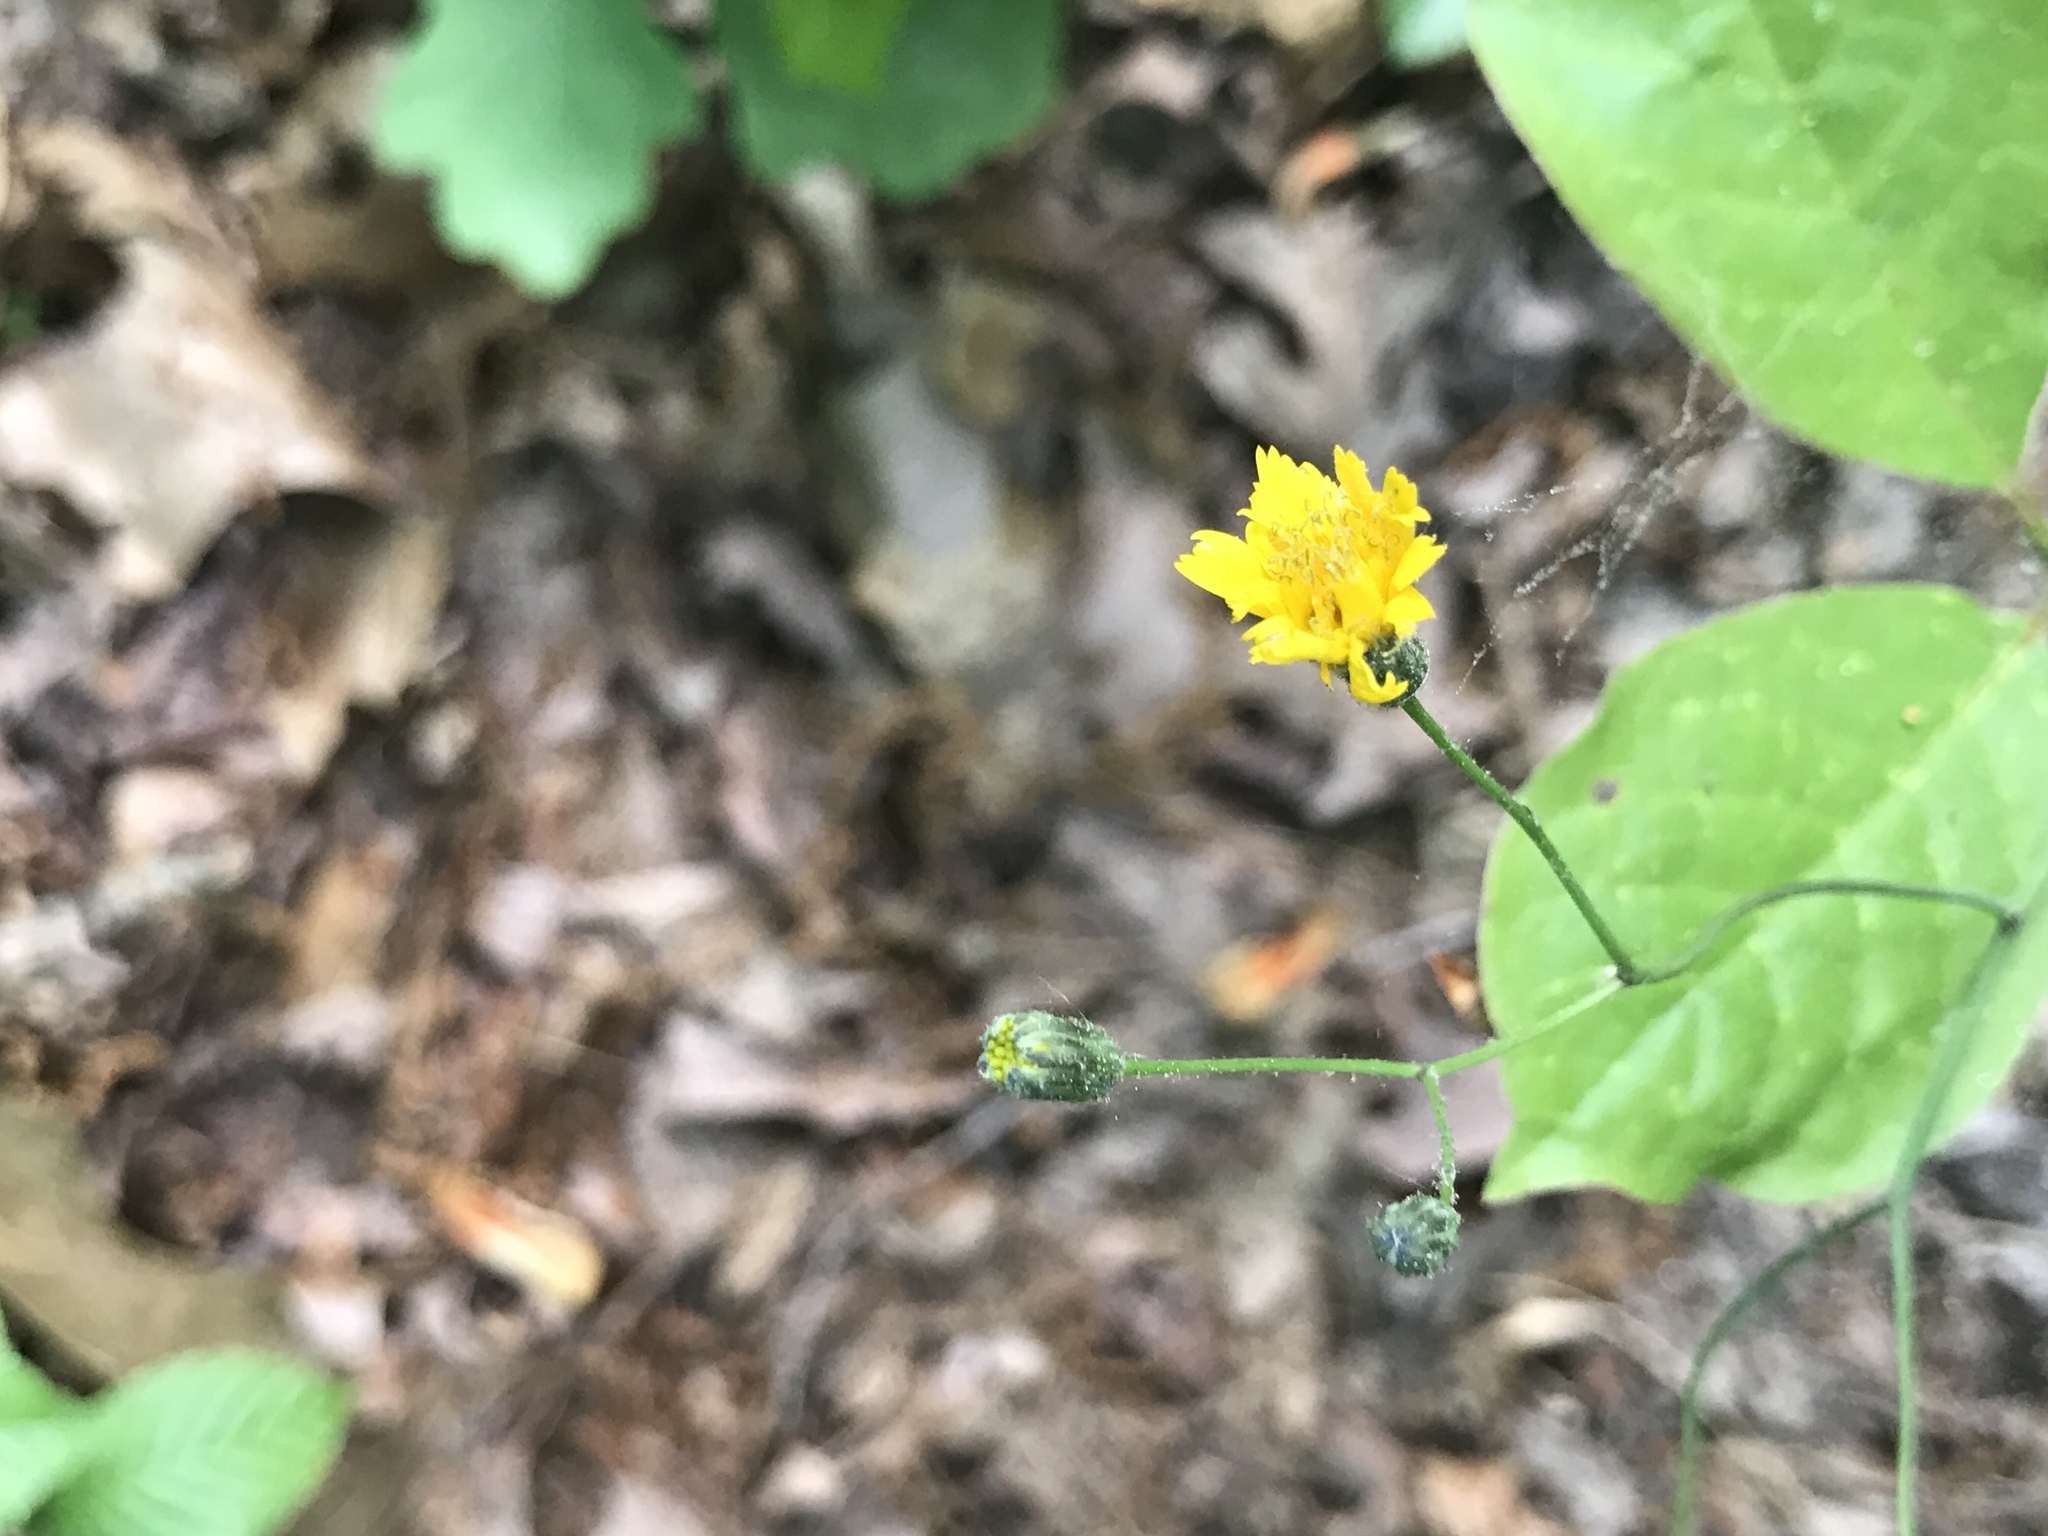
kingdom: Plantae
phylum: Tracheophyta
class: Magnoliopsida
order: Asterales
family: Asteraceae
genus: Hieracium
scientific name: Hieracium venosum
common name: Rattlesnake hawkweed
